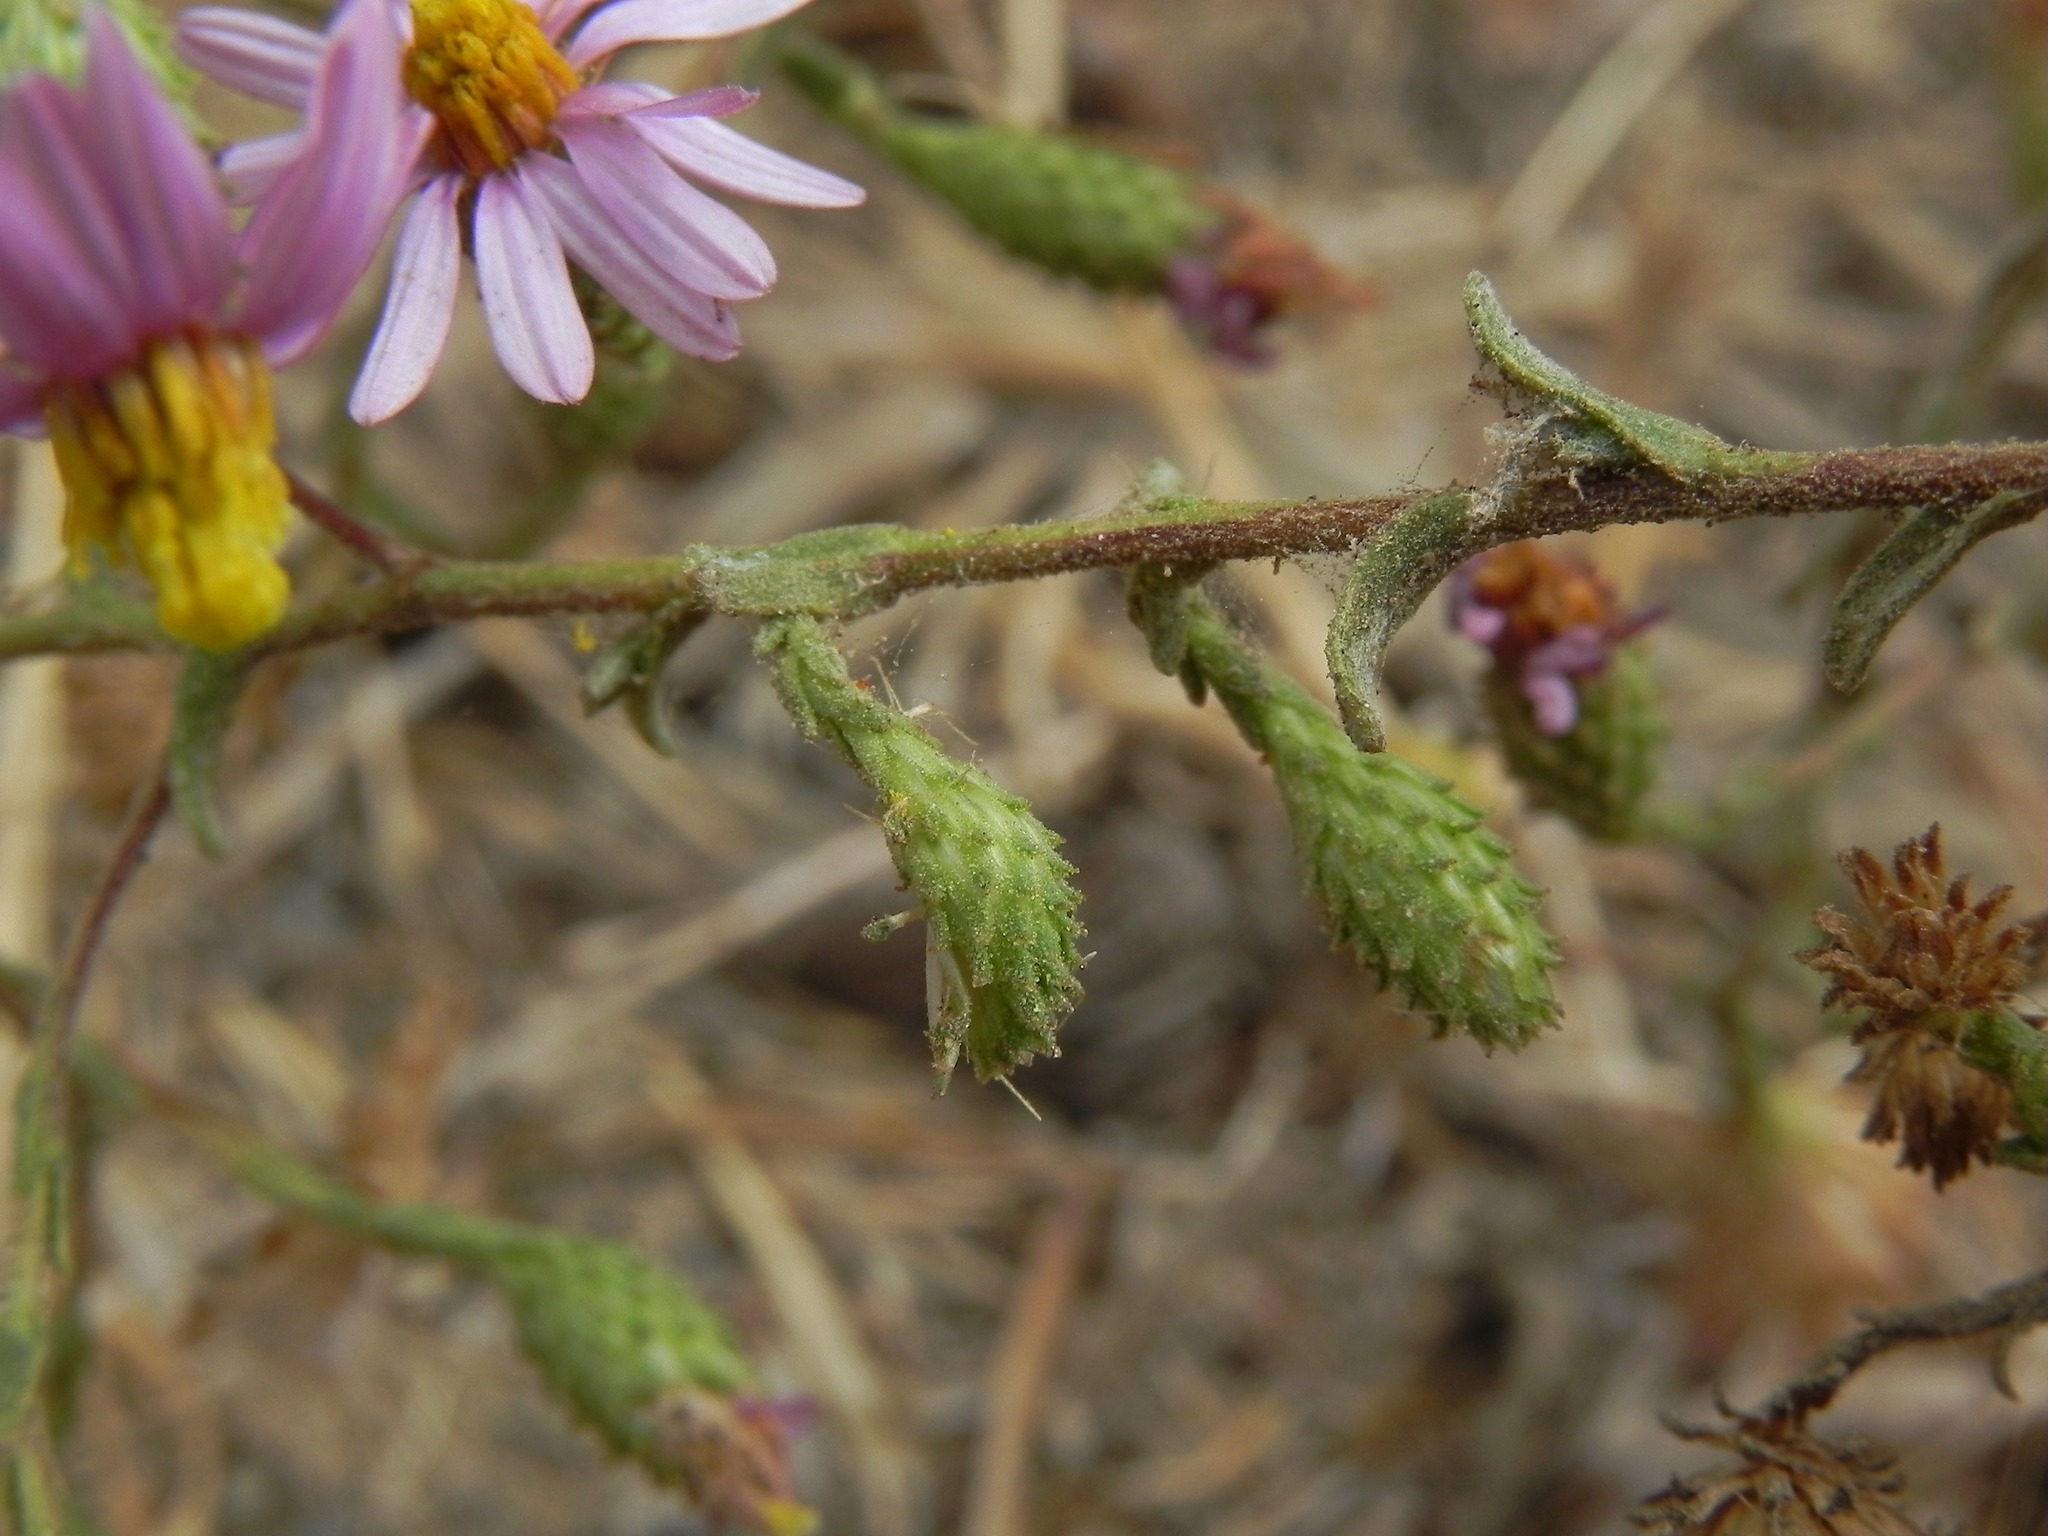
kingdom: Plantae
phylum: Tracheophyta
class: Magnoliopsida
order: Asterales
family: Asteraceae
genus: Corethrogyne
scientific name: Corethrogyne filaginifolia
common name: Sand-aster
